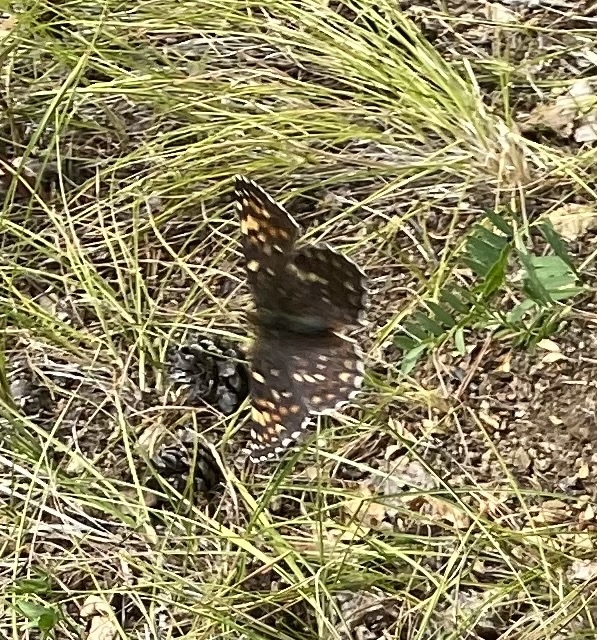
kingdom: Animalia
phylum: Arthropoda
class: Insecta
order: Lepidoptera
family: Nymphalidae
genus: Melitaea
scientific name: Melitaea phoebe
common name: Knapweed fritillary
